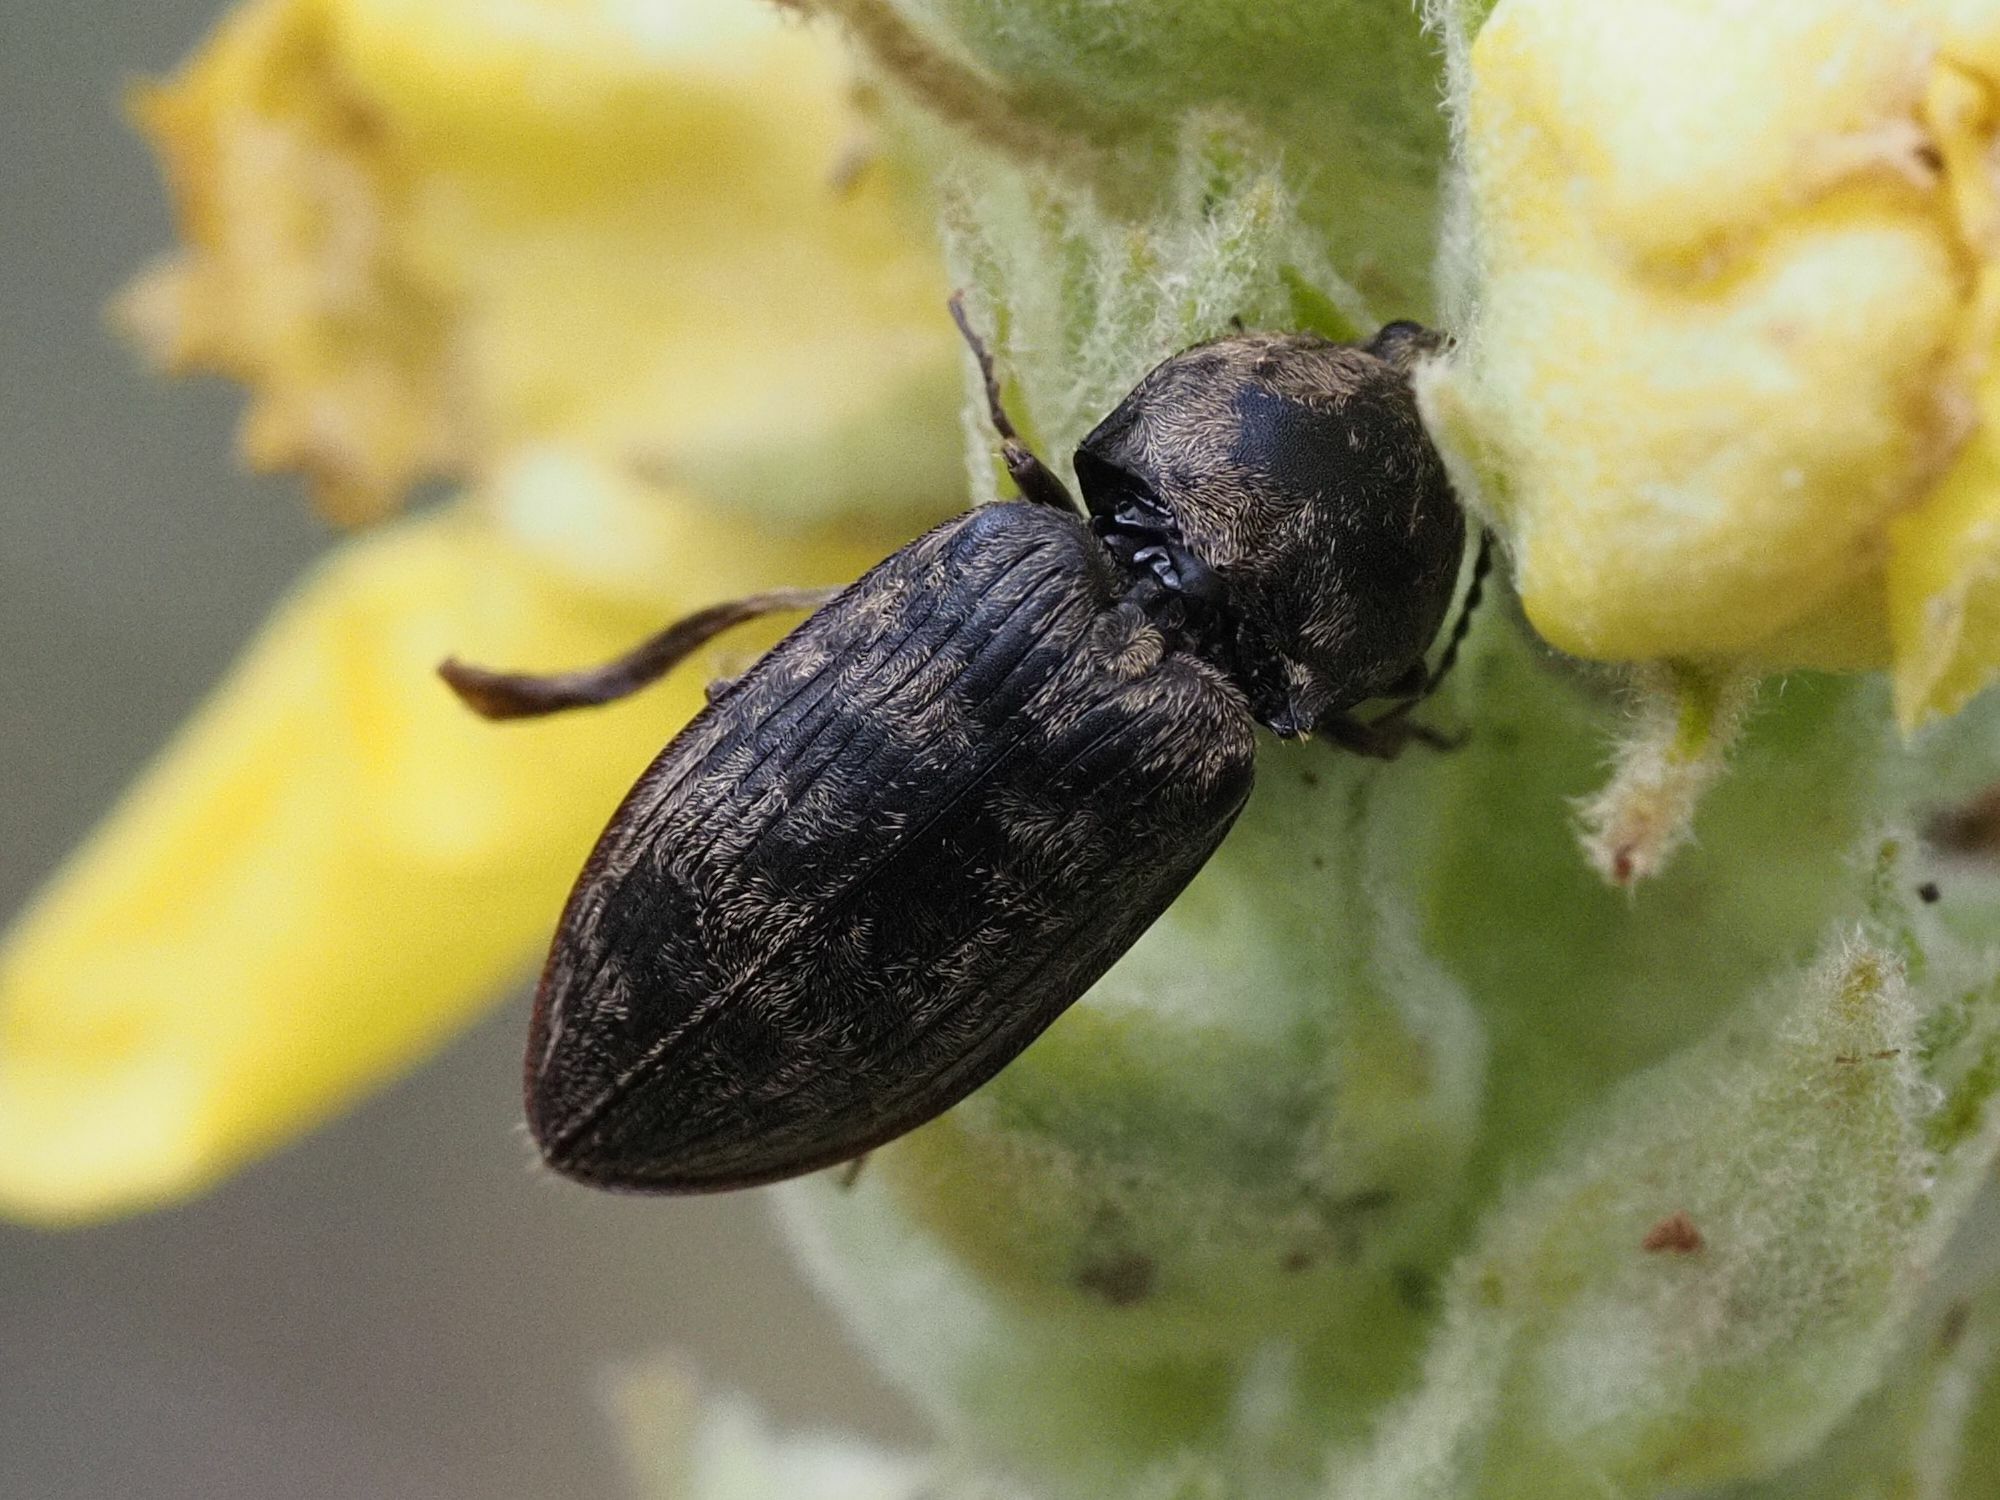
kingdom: Animalia
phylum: Arthropoda
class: Insecta
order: Coleoptera
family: Elateridae
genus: Prosternon
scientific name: Prosternon tessellatum
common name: Chequered click beetle
